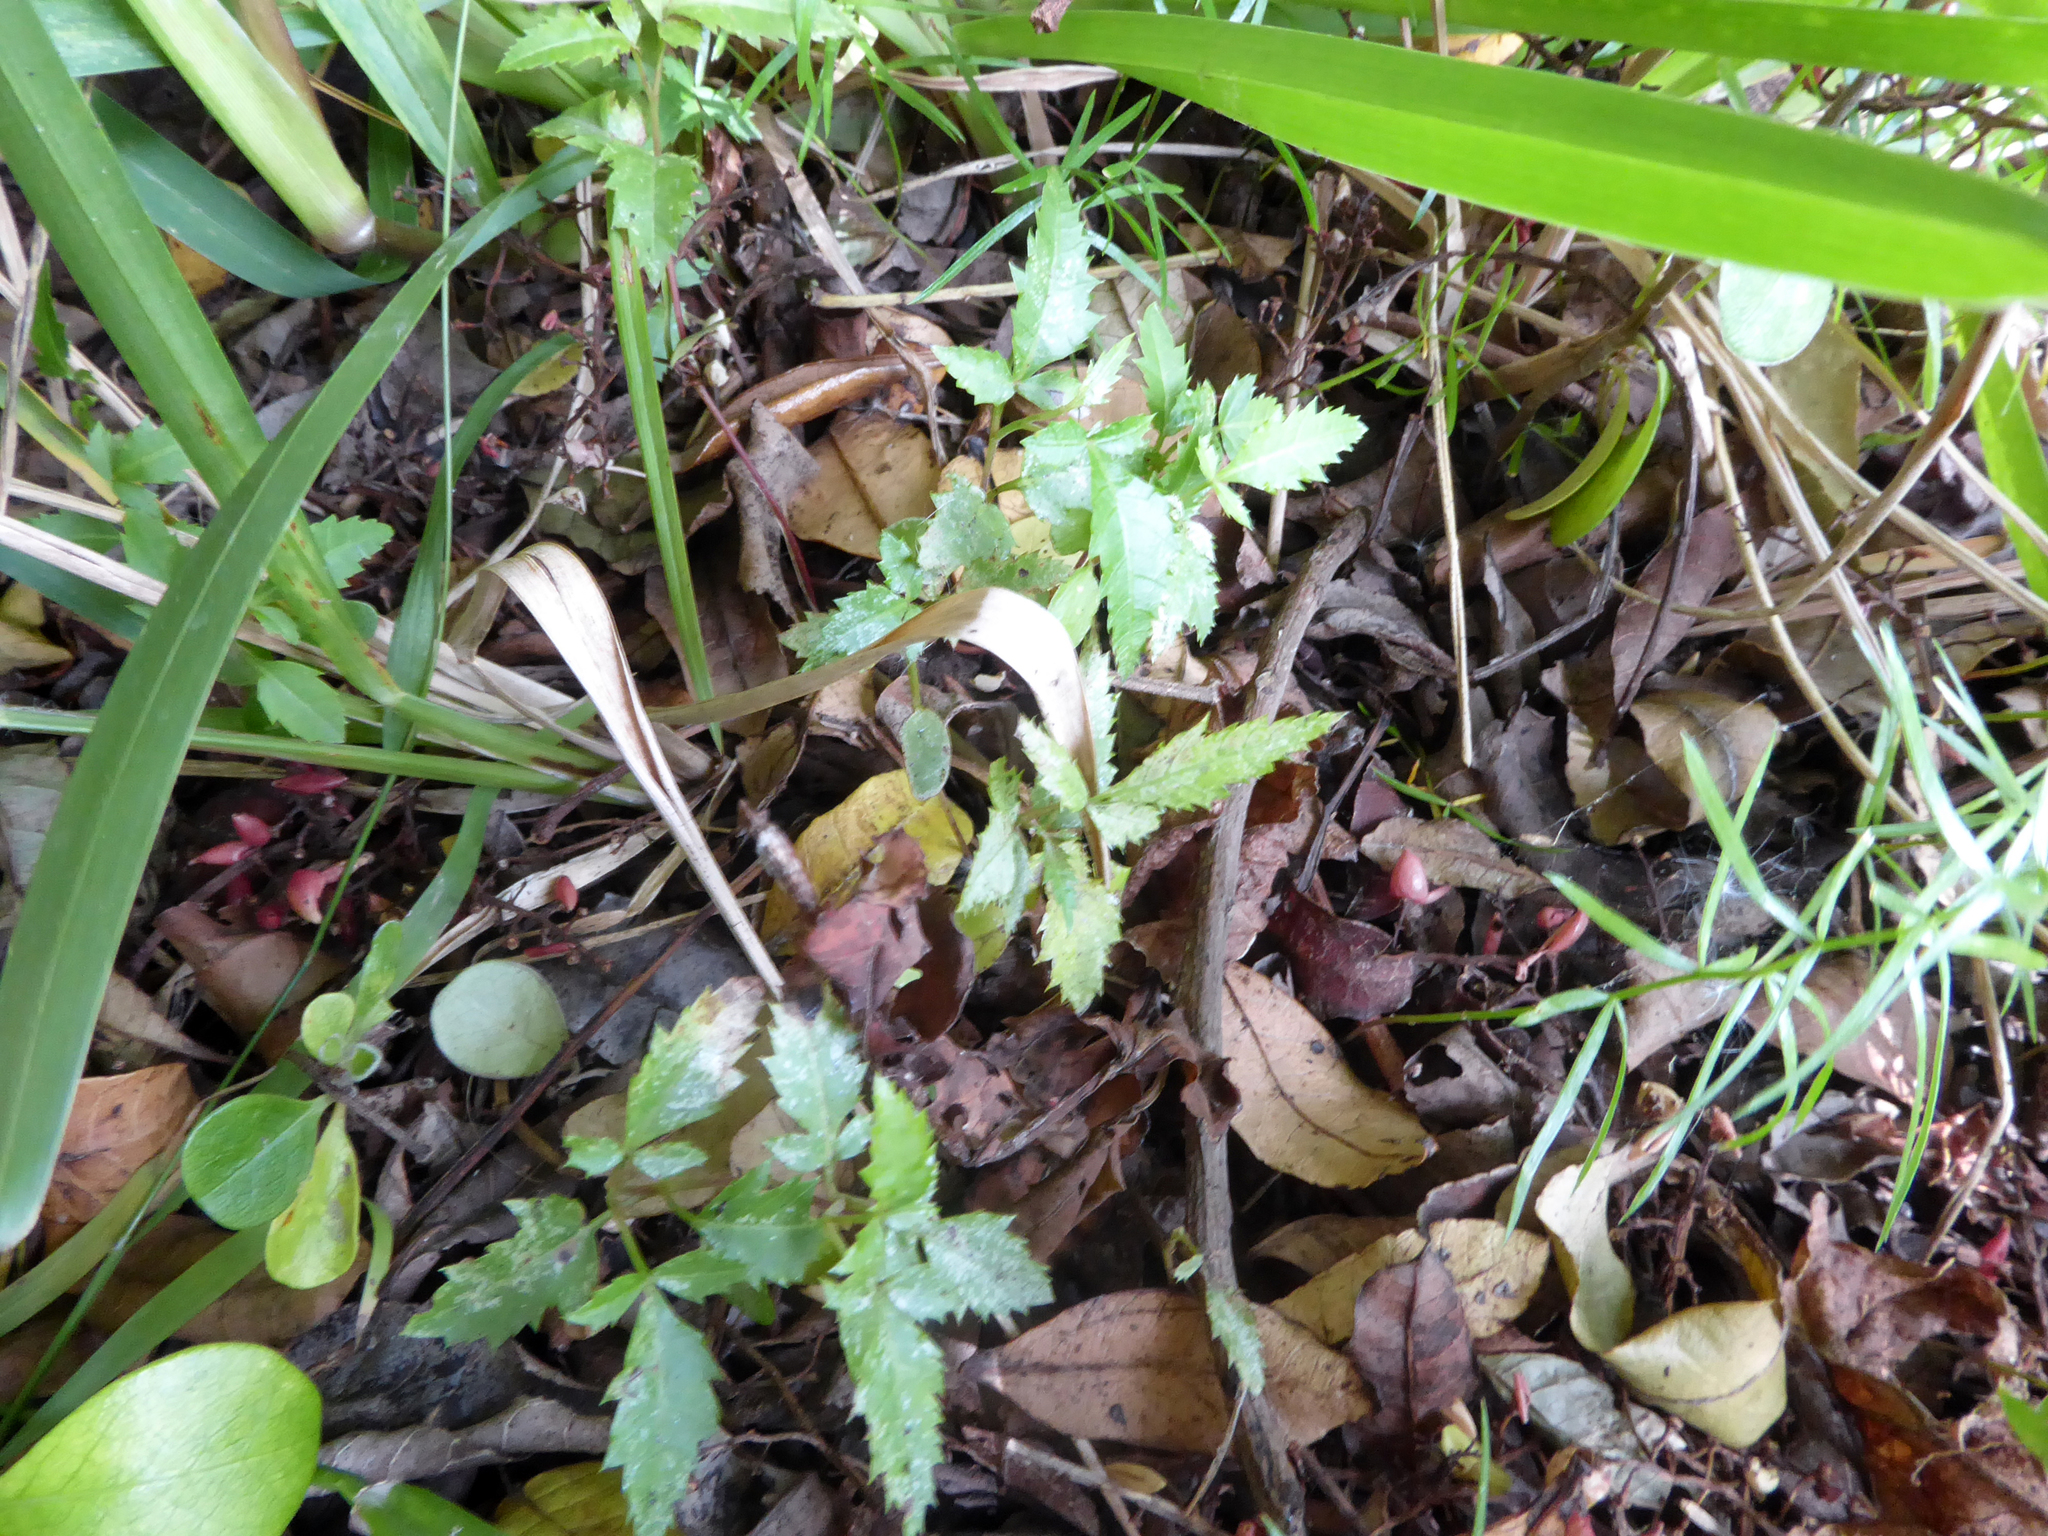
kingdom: Plantae
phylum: Tracheophyta
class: Magnoliopsida
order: Sapindales
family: Anacardiaceae
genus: Schinus
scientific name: Schinus terebinthifolia
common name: Brazilian peppertree
